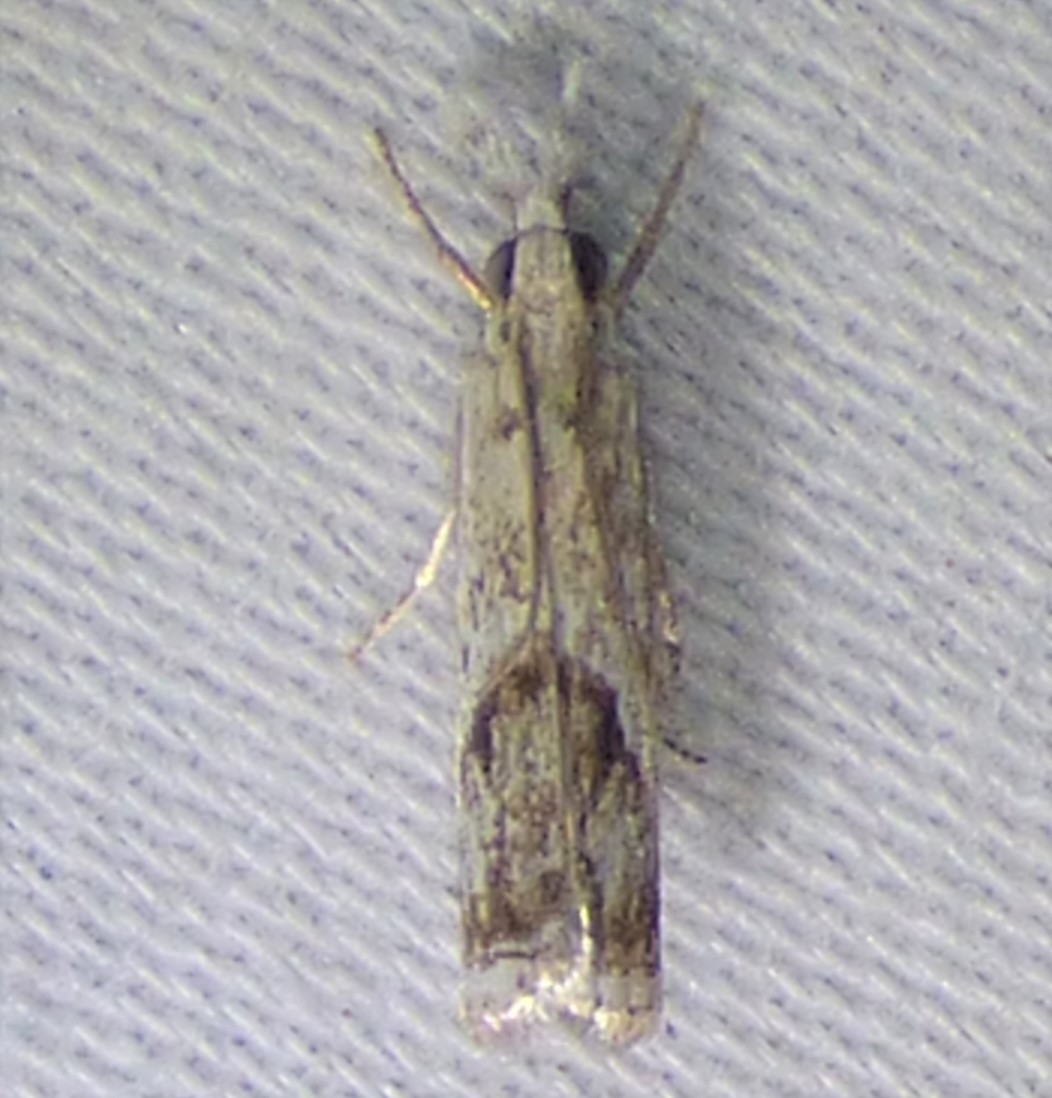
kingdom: Animalia
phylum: Arthropoda
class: Insecta
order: Lepidoptera
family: Crambidae
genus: Microcrambus
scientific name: Microcrambus immunellus
